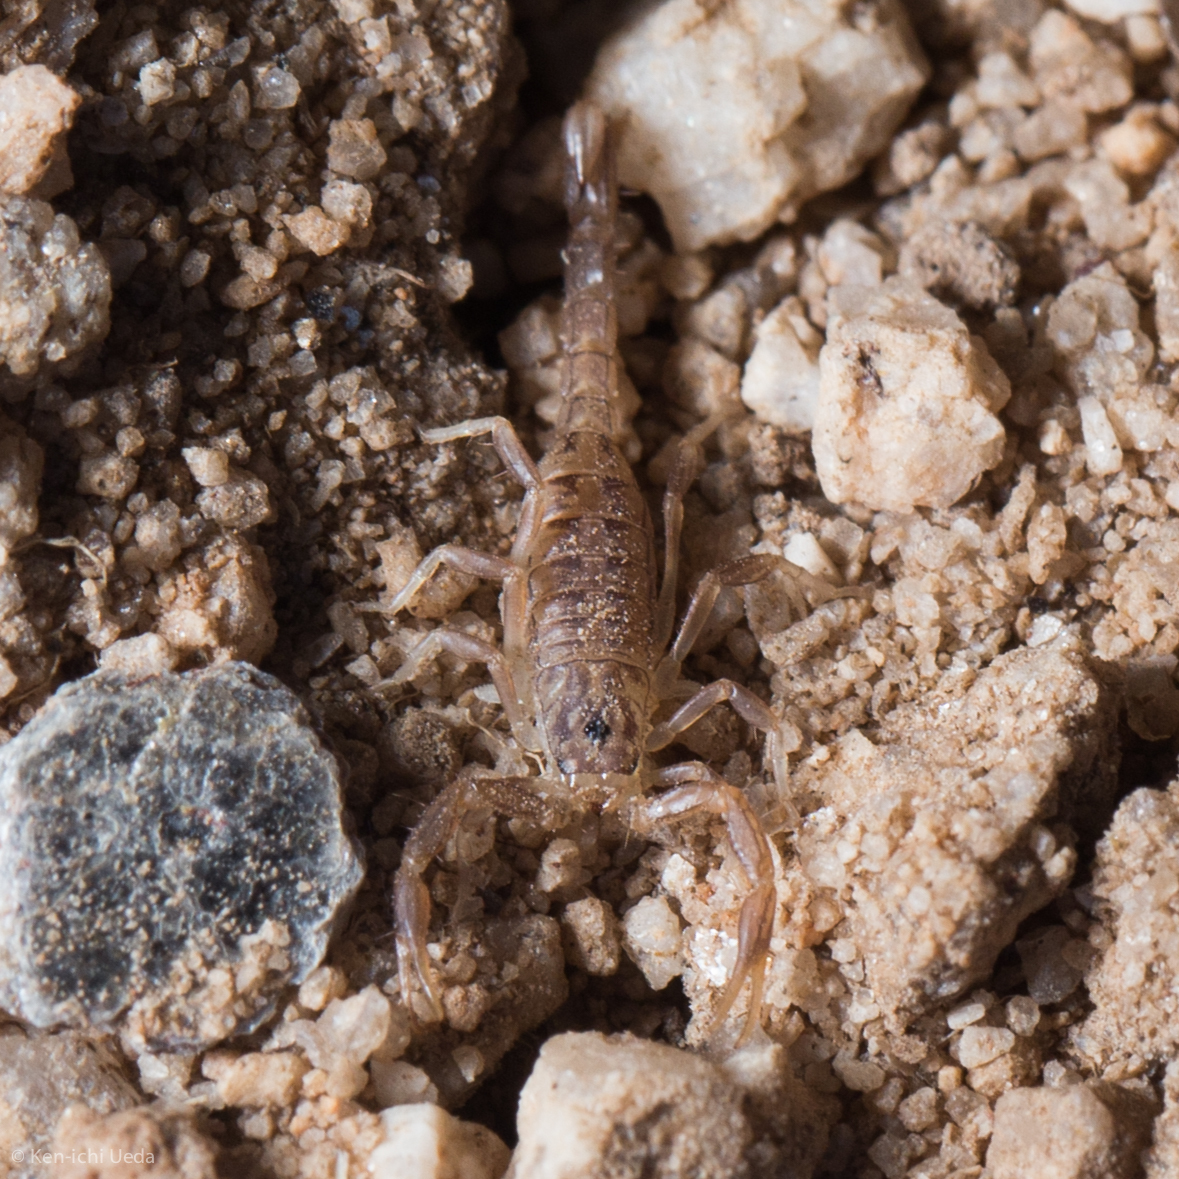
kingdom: Animalia
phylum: Arthropoda
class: Arachnida
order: Scorpiones
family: Vaejovidae
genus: Paravaejovis
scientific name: Paravaejovis spinigerus
